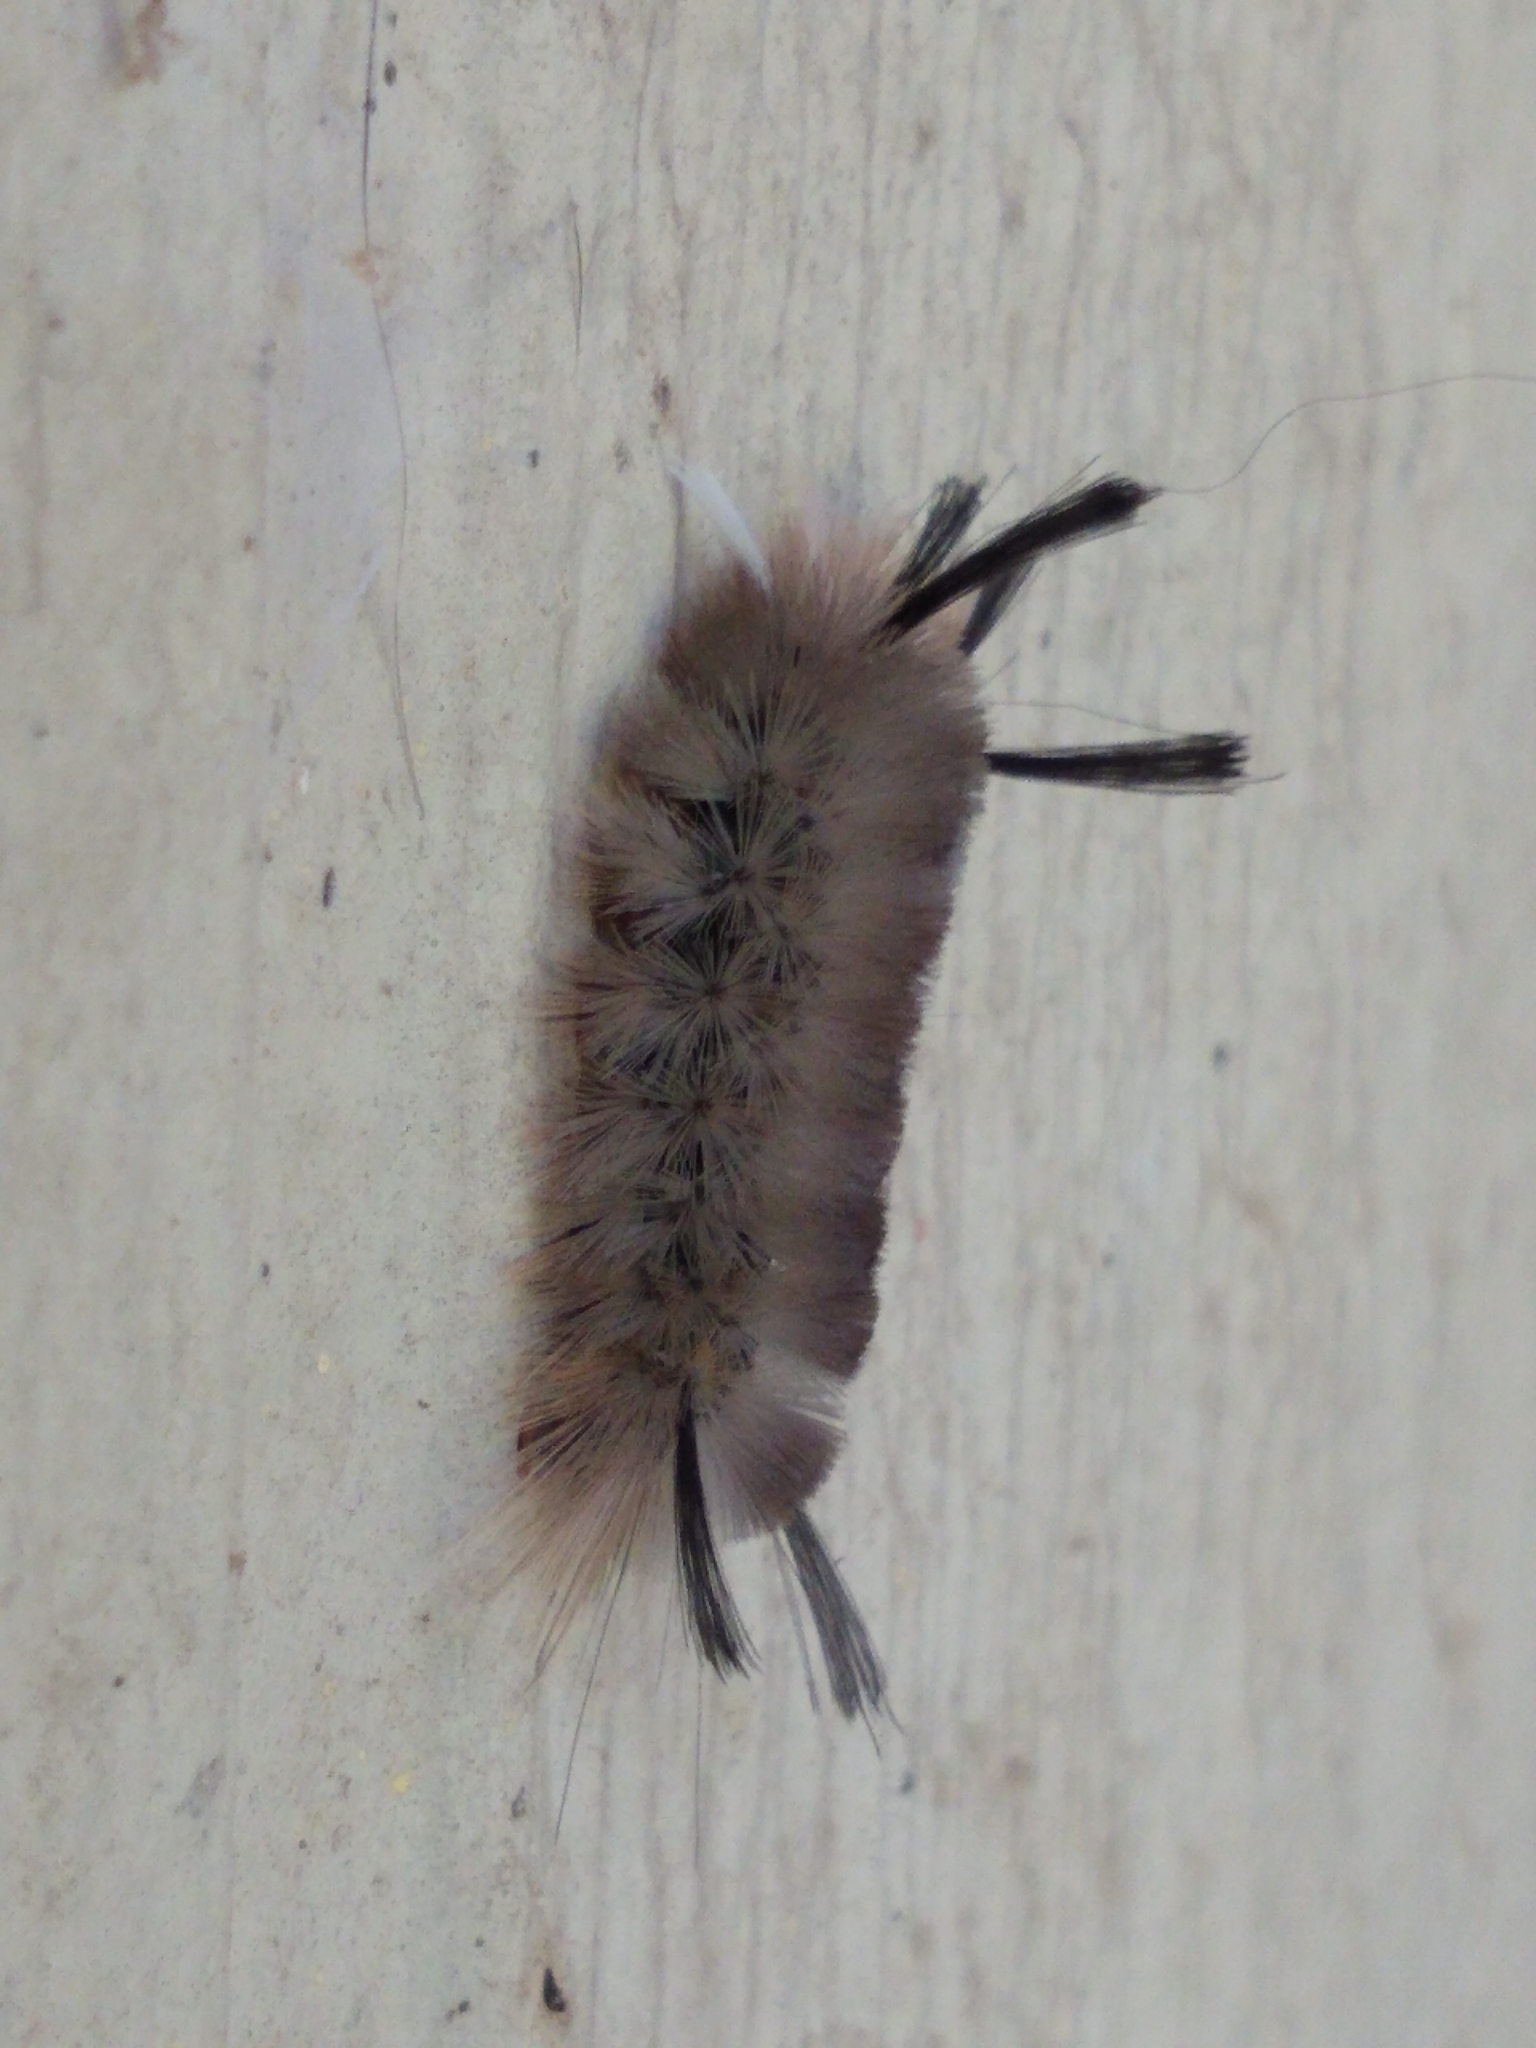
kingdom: Animalia
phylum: Arthropoda
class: Insecta
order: Lepidoptera
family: Erebidae
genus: Halysidota
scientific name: Halysidota tessellaris
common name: Banded tussock moth
